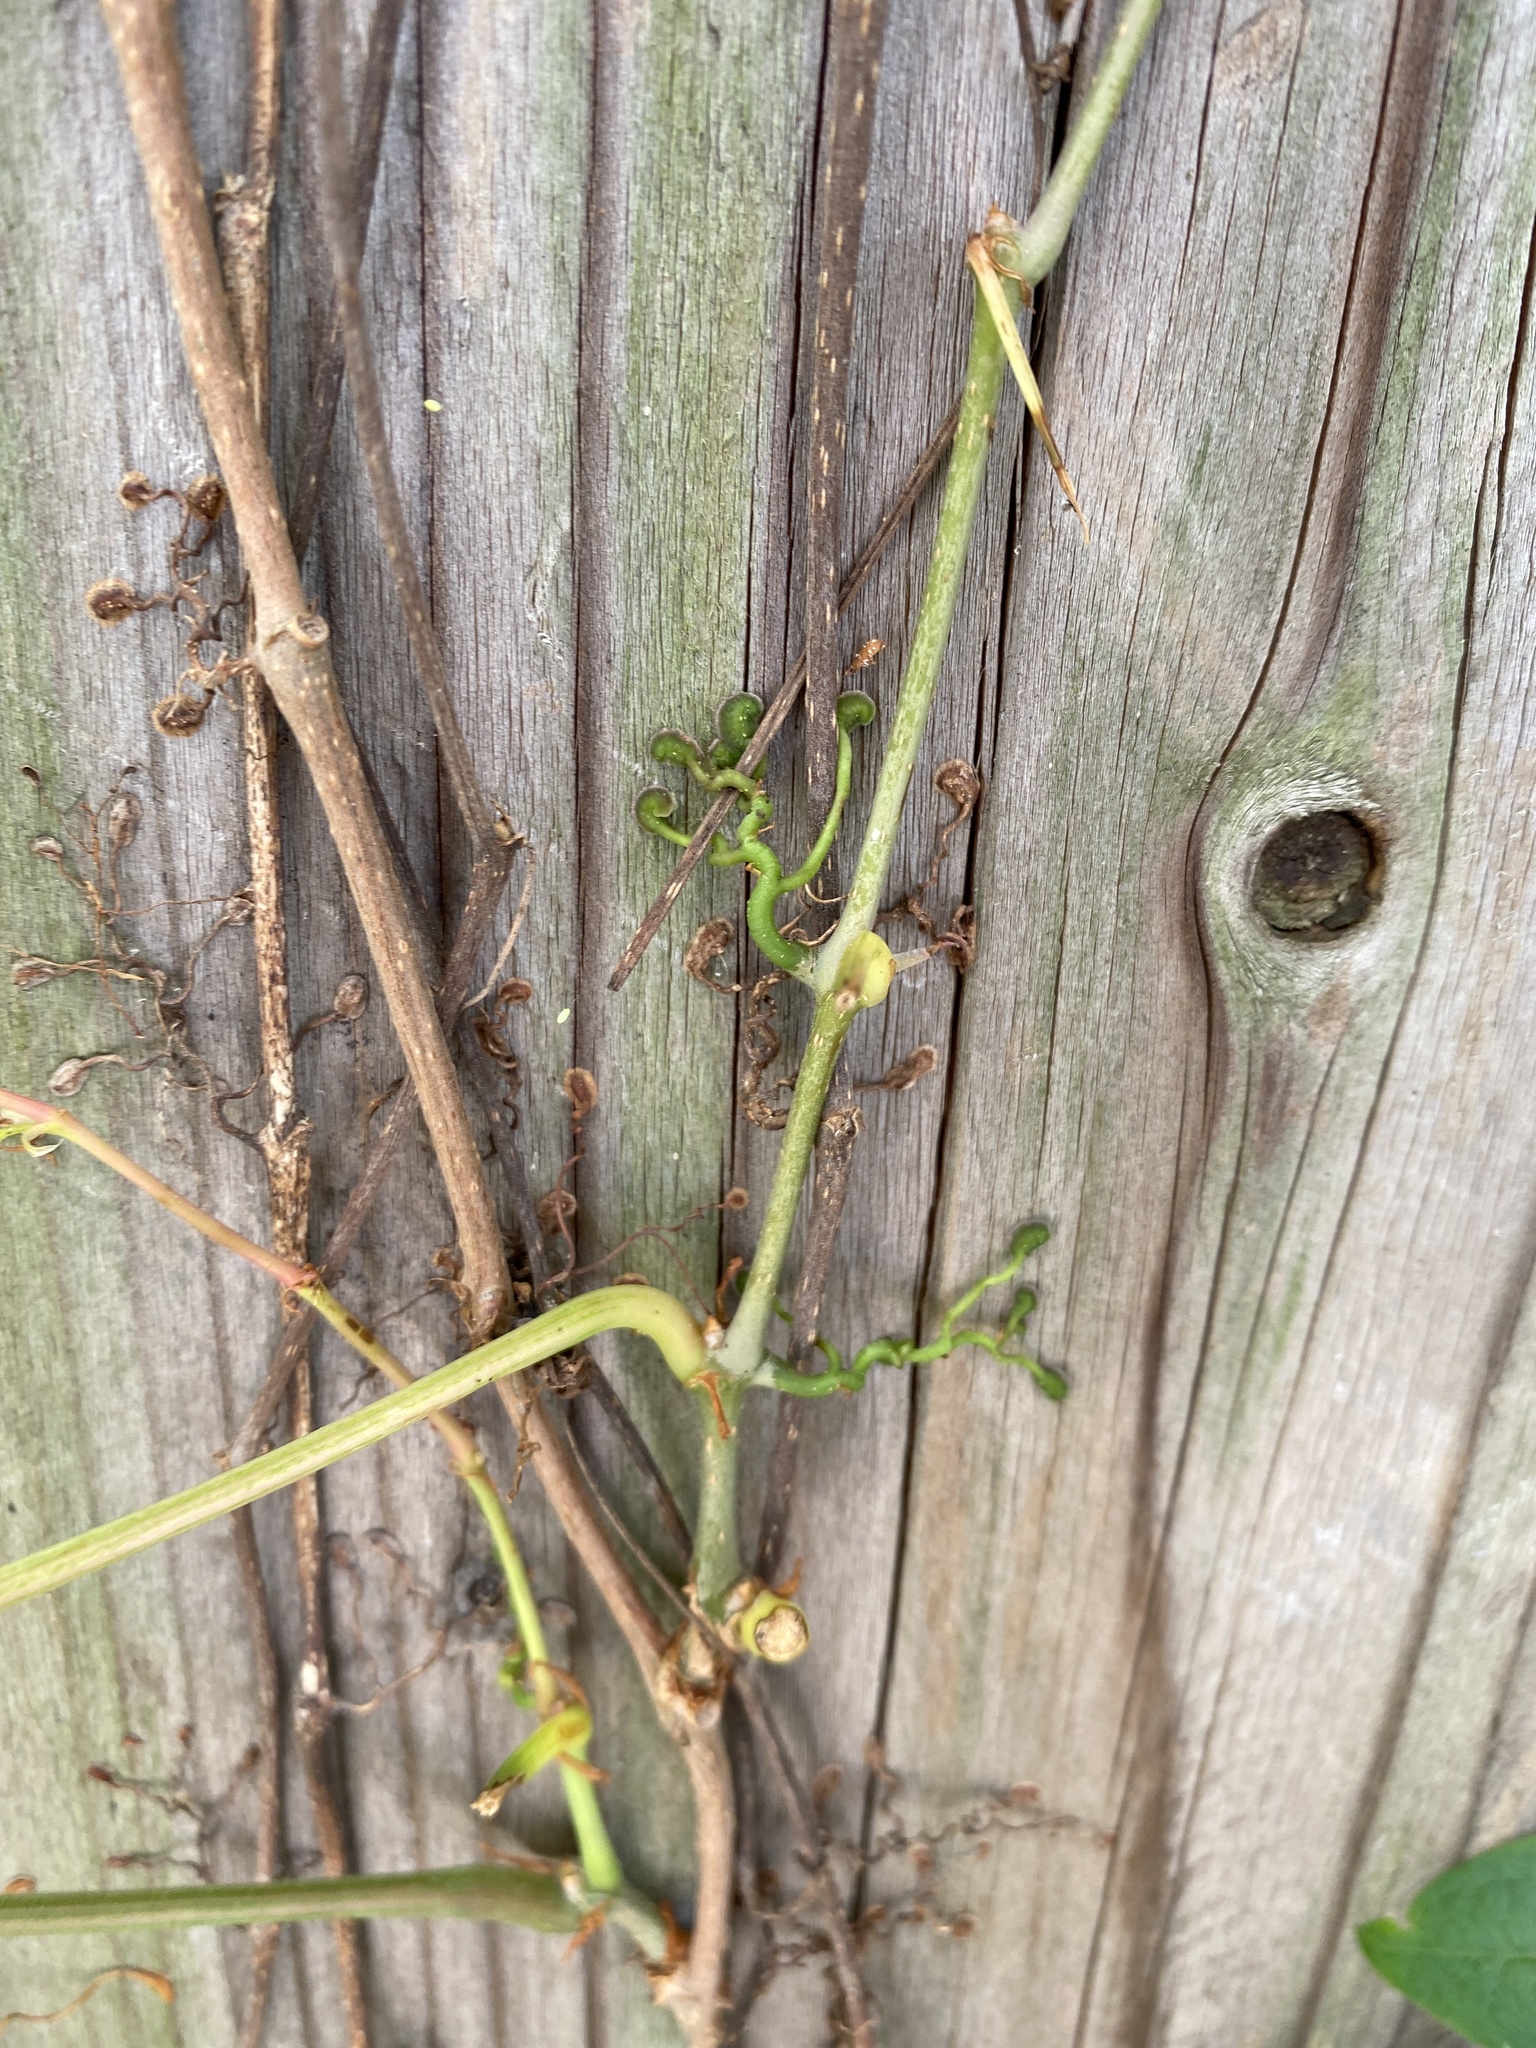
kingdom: Plantae
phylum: Tracheophyta
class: Magnoliopsida
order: Vitales
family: Vitaceae
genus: Parthenocissus
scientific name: Parthenocissus quinquefolia
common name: Virginia-creeper
